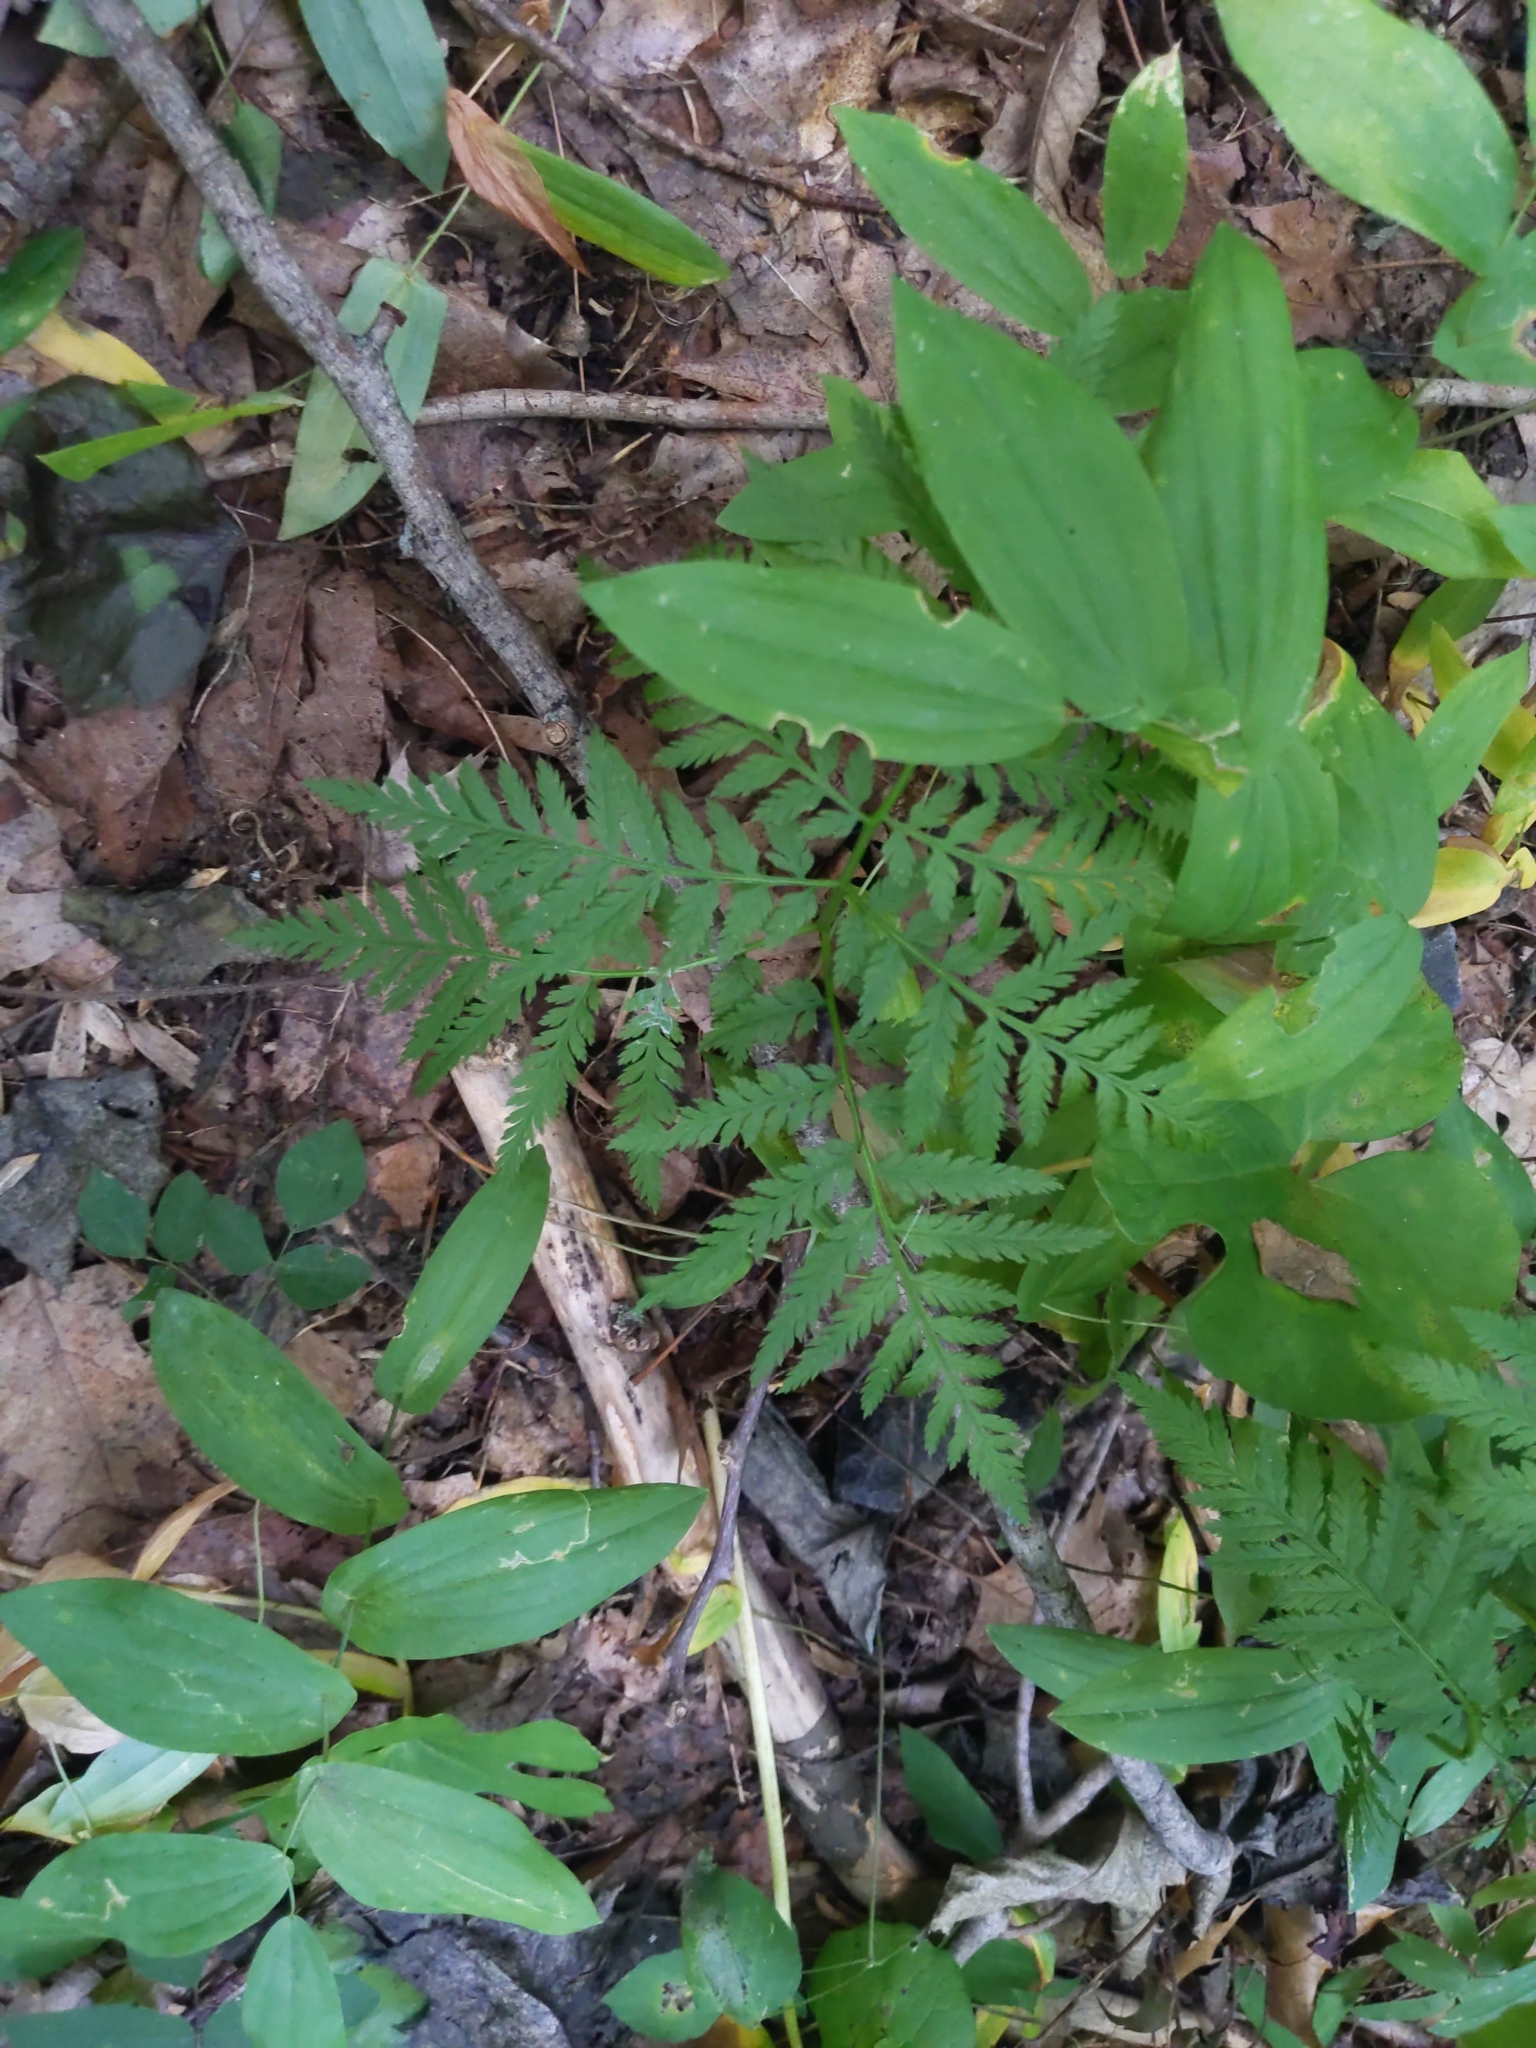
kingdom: Plantae
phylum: Tracheophyta
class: Polypodiopsida
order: Ophioglossales
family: Ophioglossaceae
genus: Botrypus
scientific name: Botrypus virginianus
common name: Common grapefern
